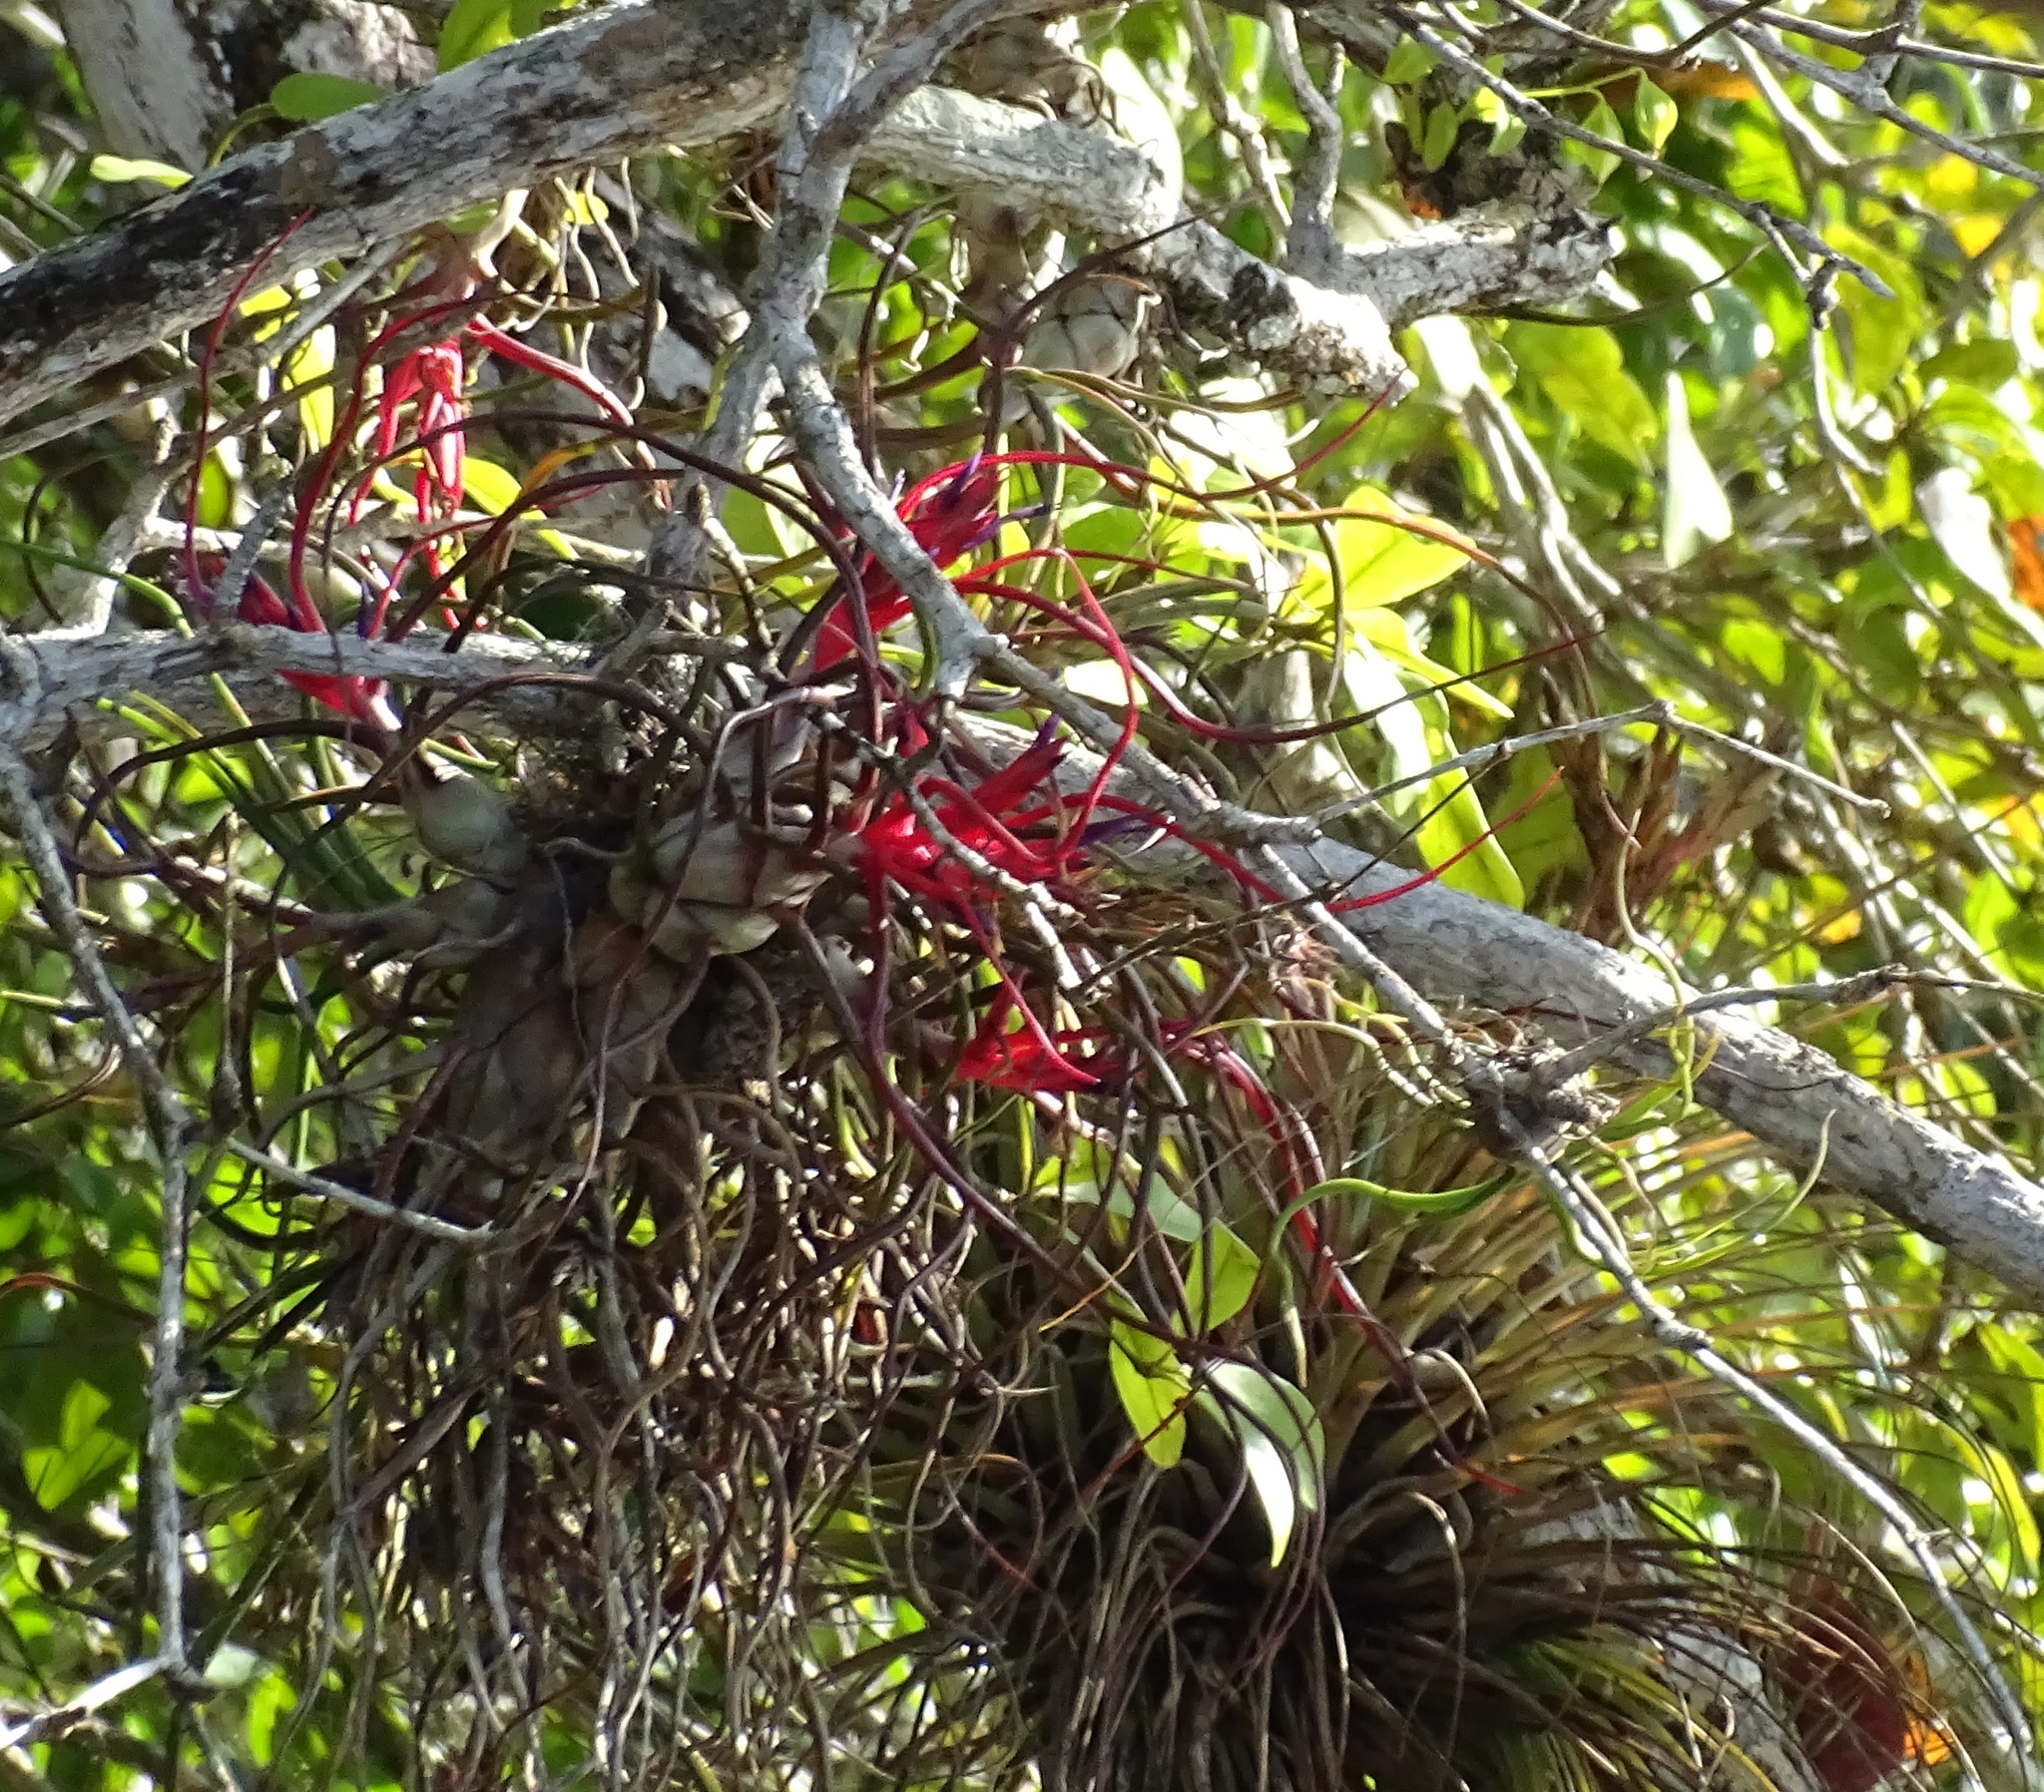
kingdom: Plantae
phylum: Tracheophyta
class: Liliopsida
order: Poales
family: Bromeliaceae
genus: Tillandsia
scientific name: Tillandsia bulbosa
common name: Bulbous airplant
